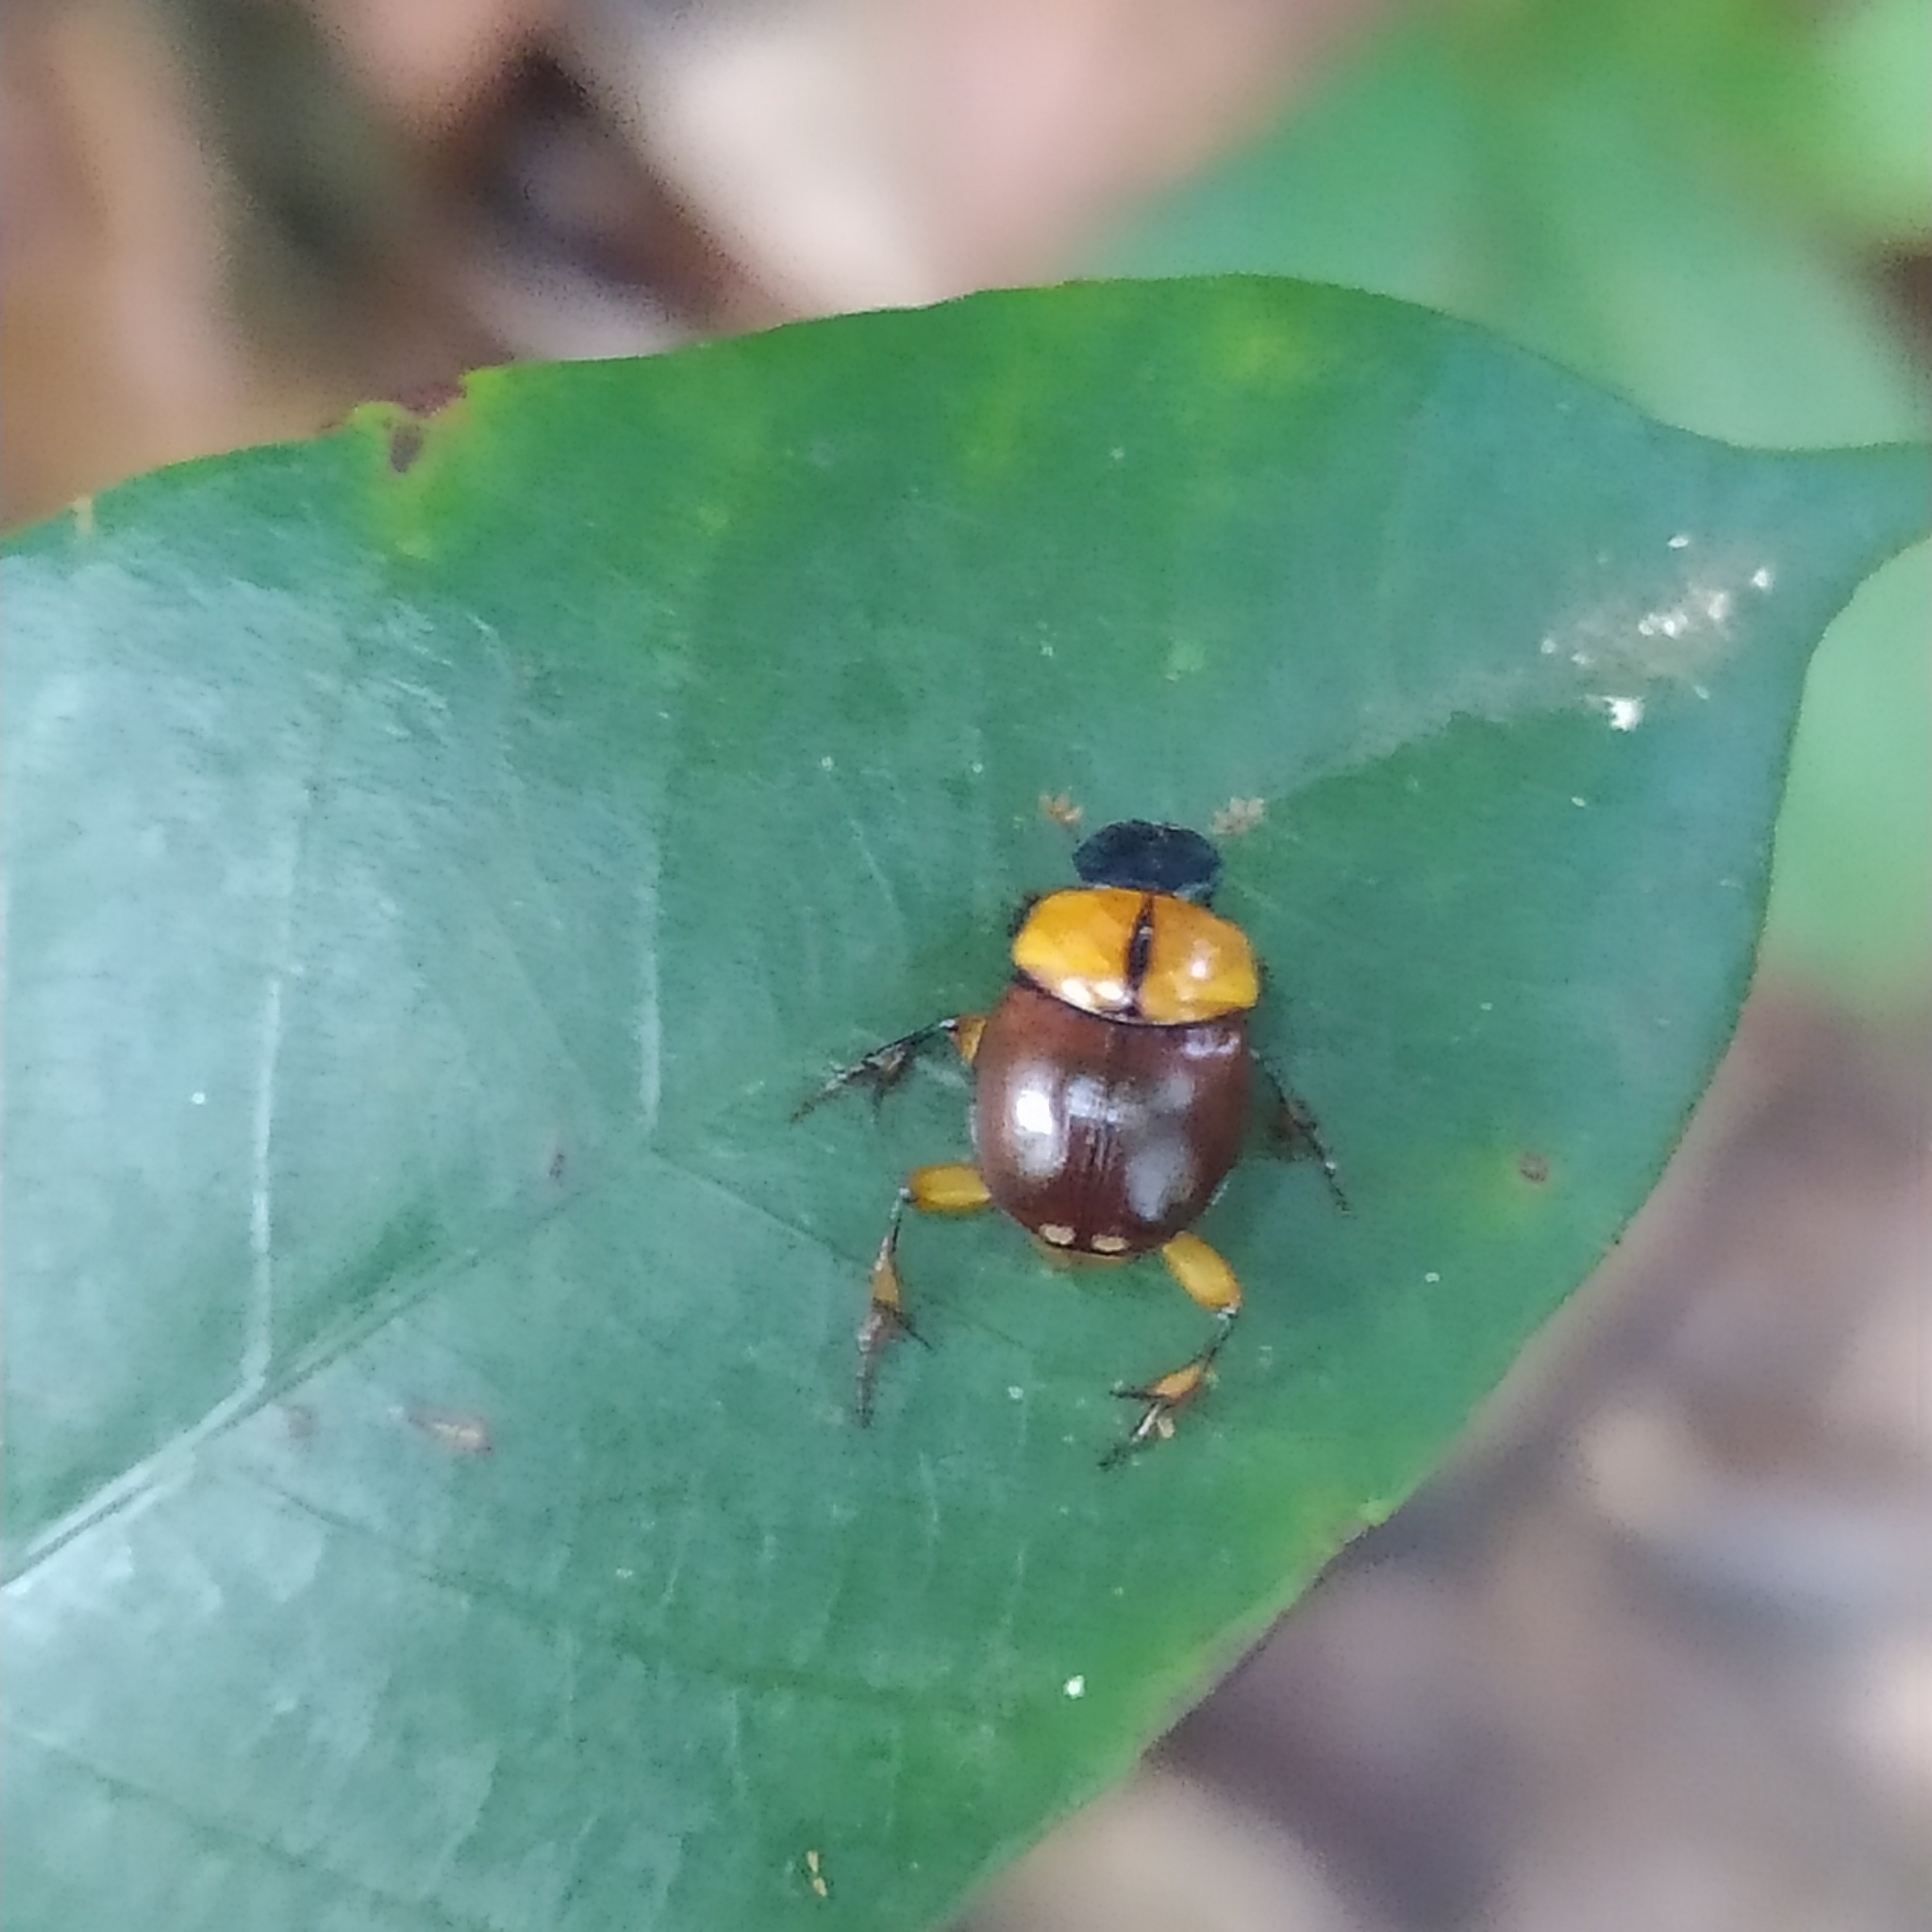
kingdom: Animalia
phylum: Arthropoda
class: Insecta
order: Coleoptera
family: Scarabaeidae
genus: Scybalocanthon
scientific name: Scybalocanthon pygidialis
